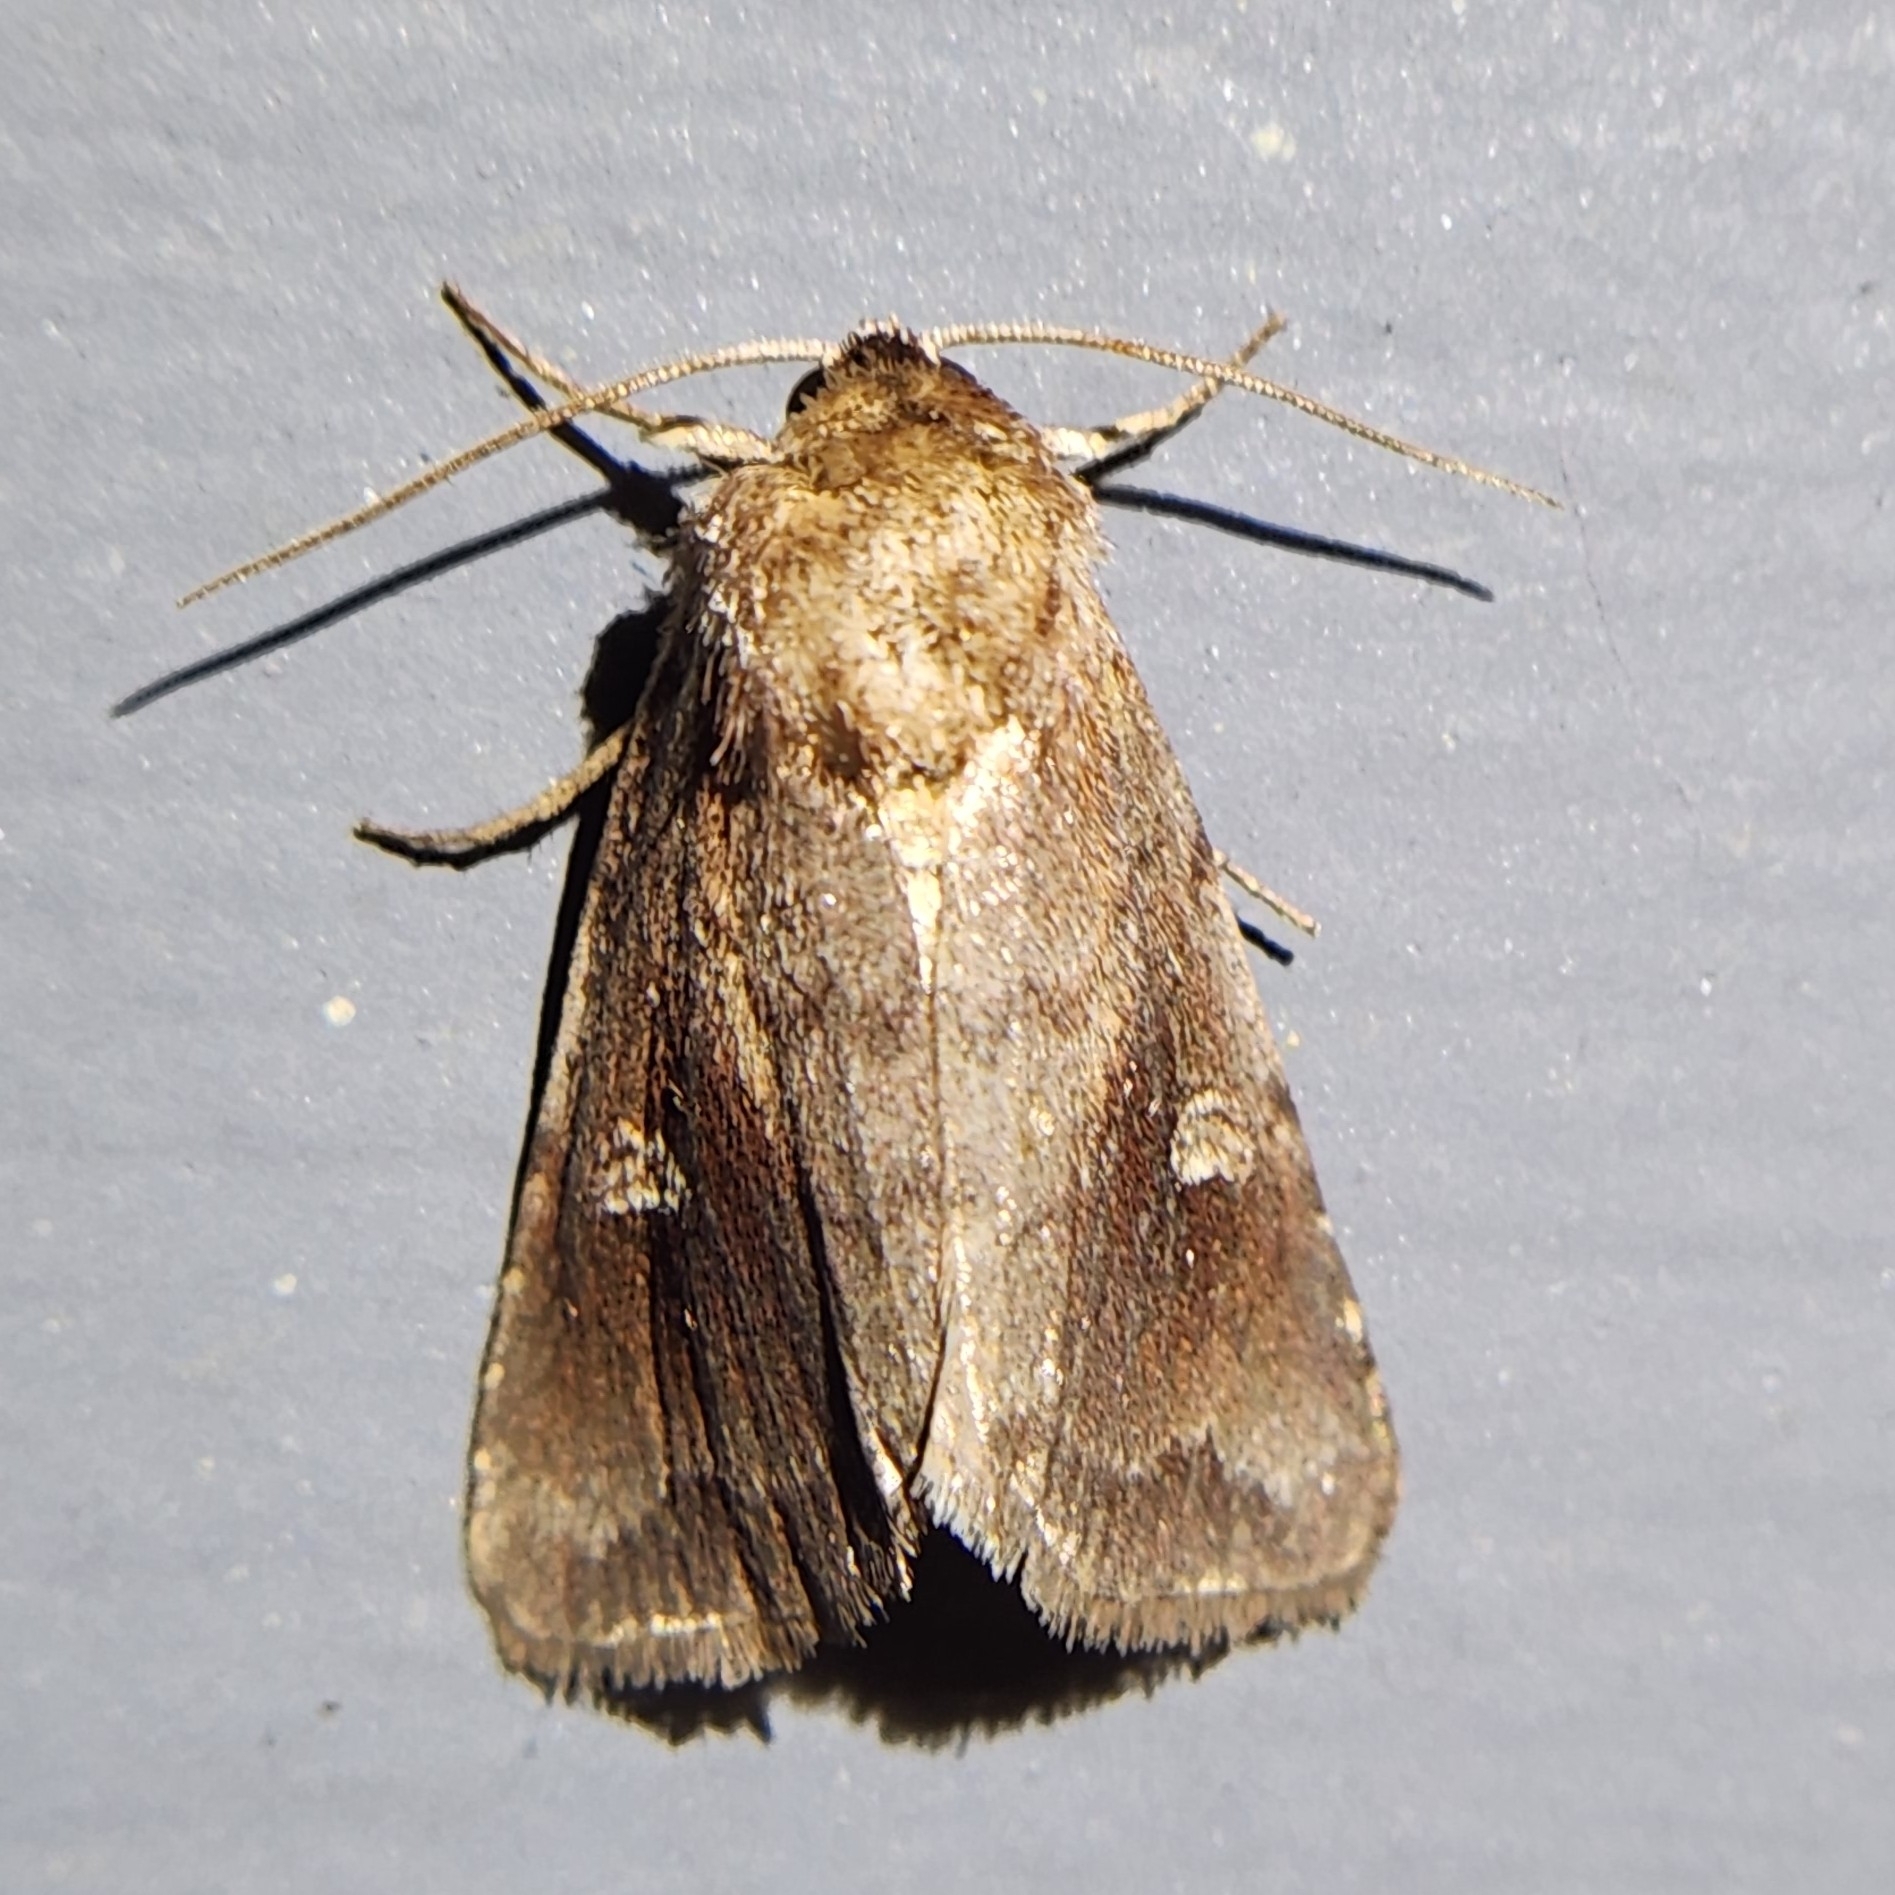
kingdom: Animalia
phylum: Arthropoda
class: Insecta
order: Lepidoptera
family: Noctuidae
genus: Iodopepla
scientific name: Iodopepla ualbum
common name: White-eyed borer moth
